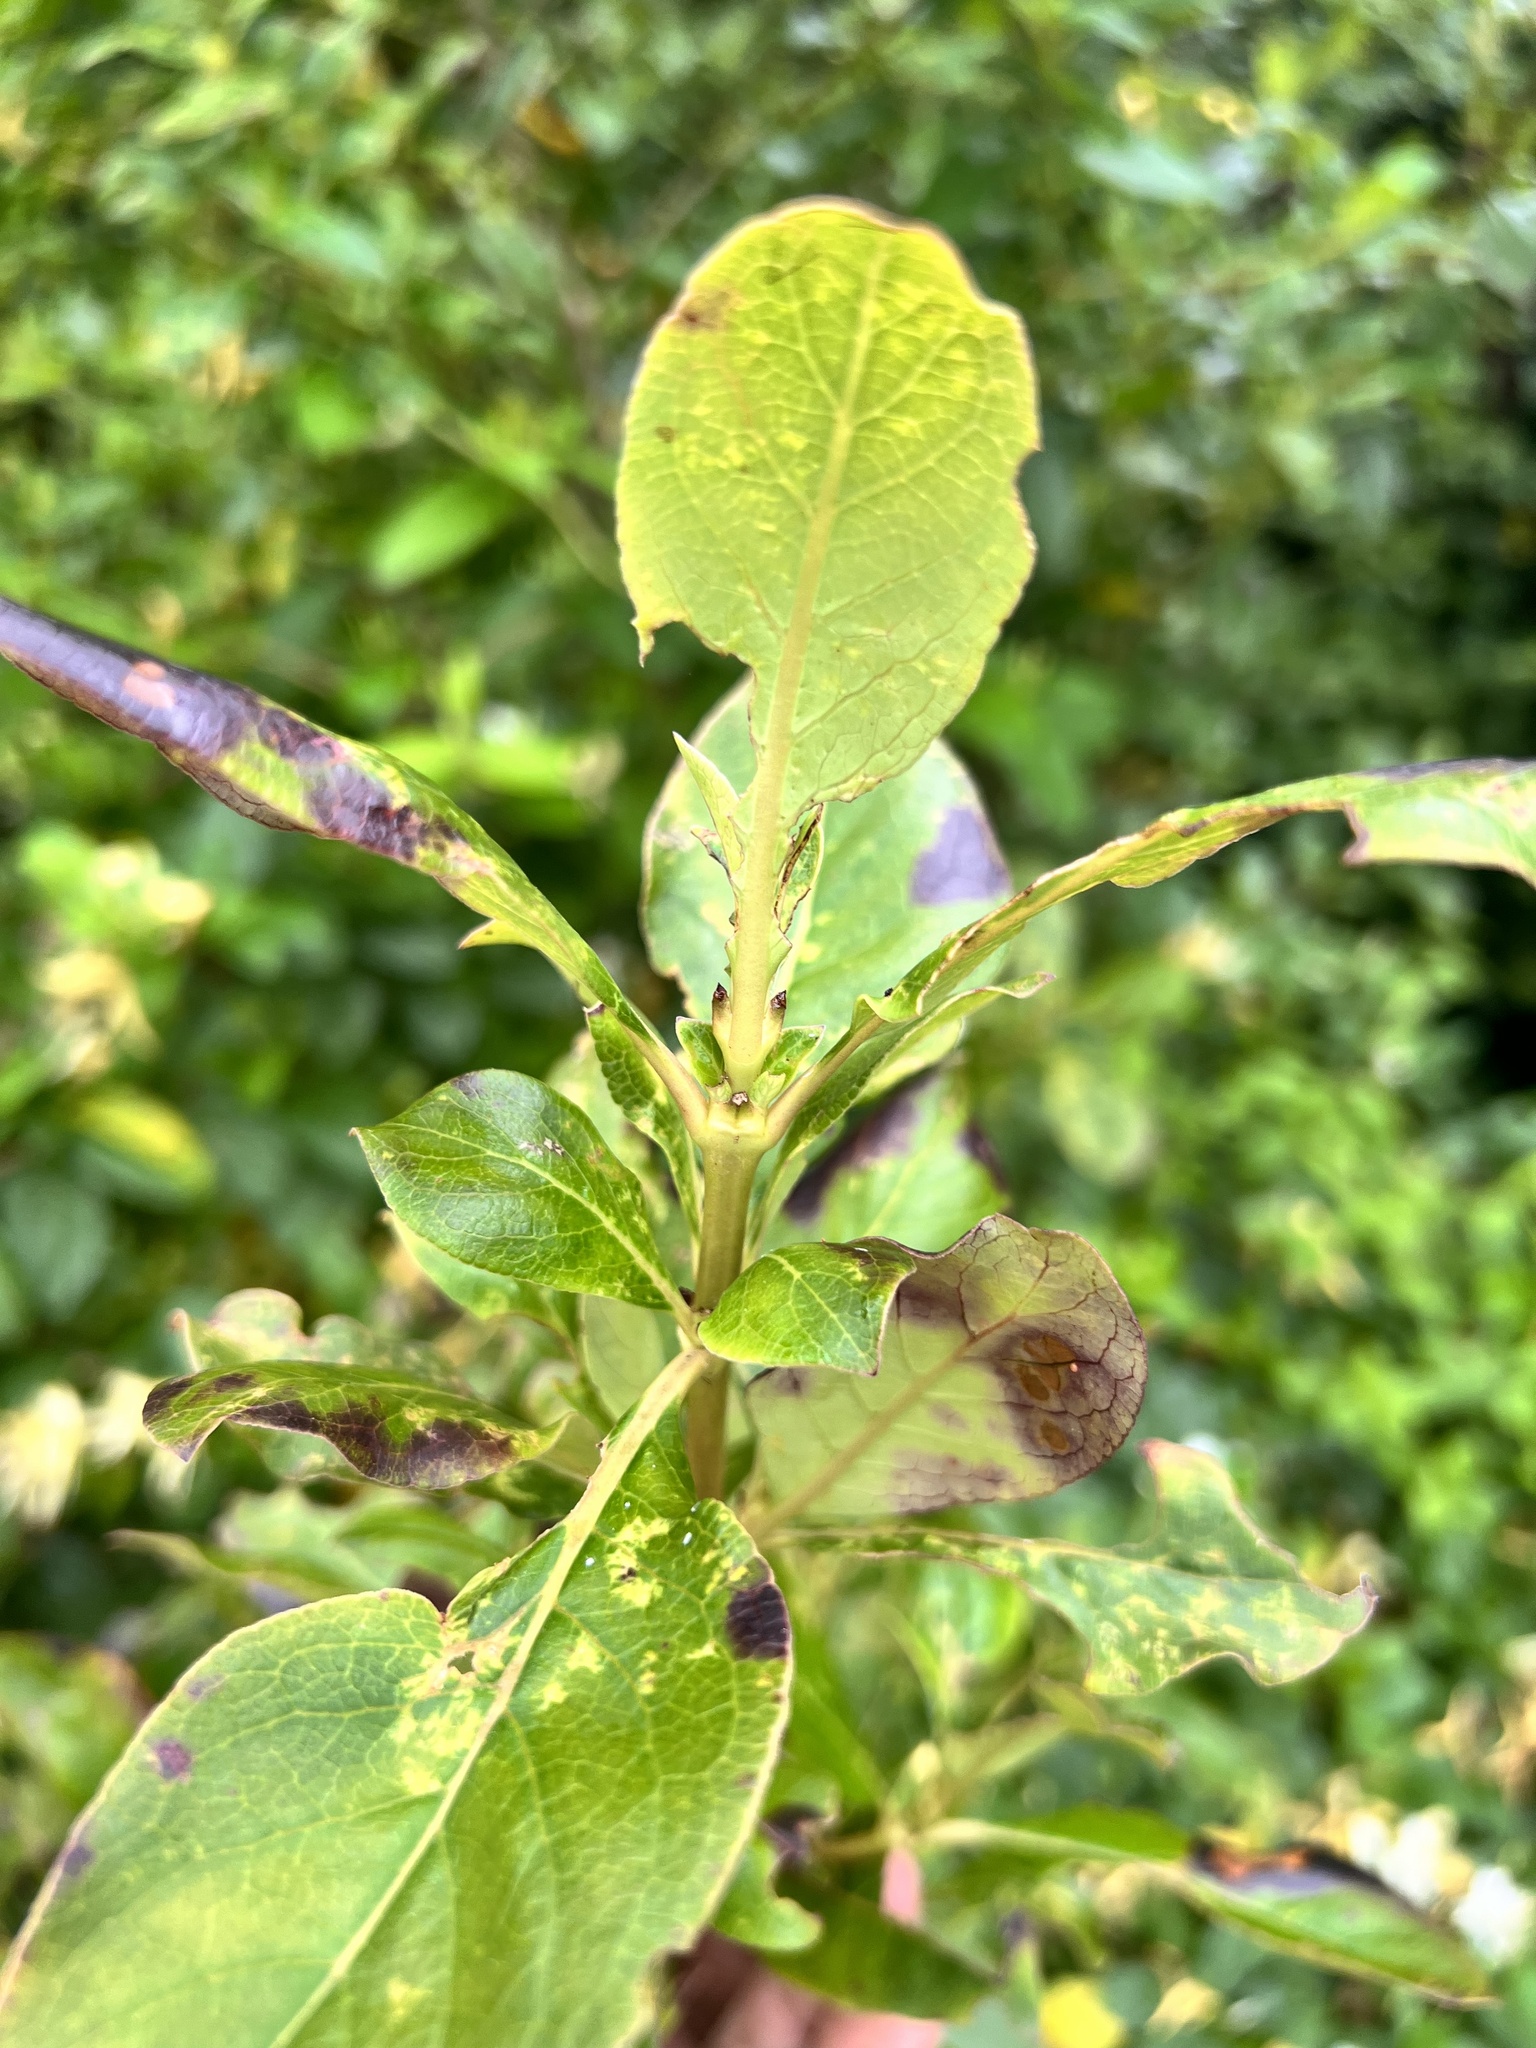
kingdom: Plantae
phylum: Tracheophyta
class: Magnoliopsida
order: Gentianales
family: Rubiaceae
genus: Coprosma
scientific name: Coprosma robusta
